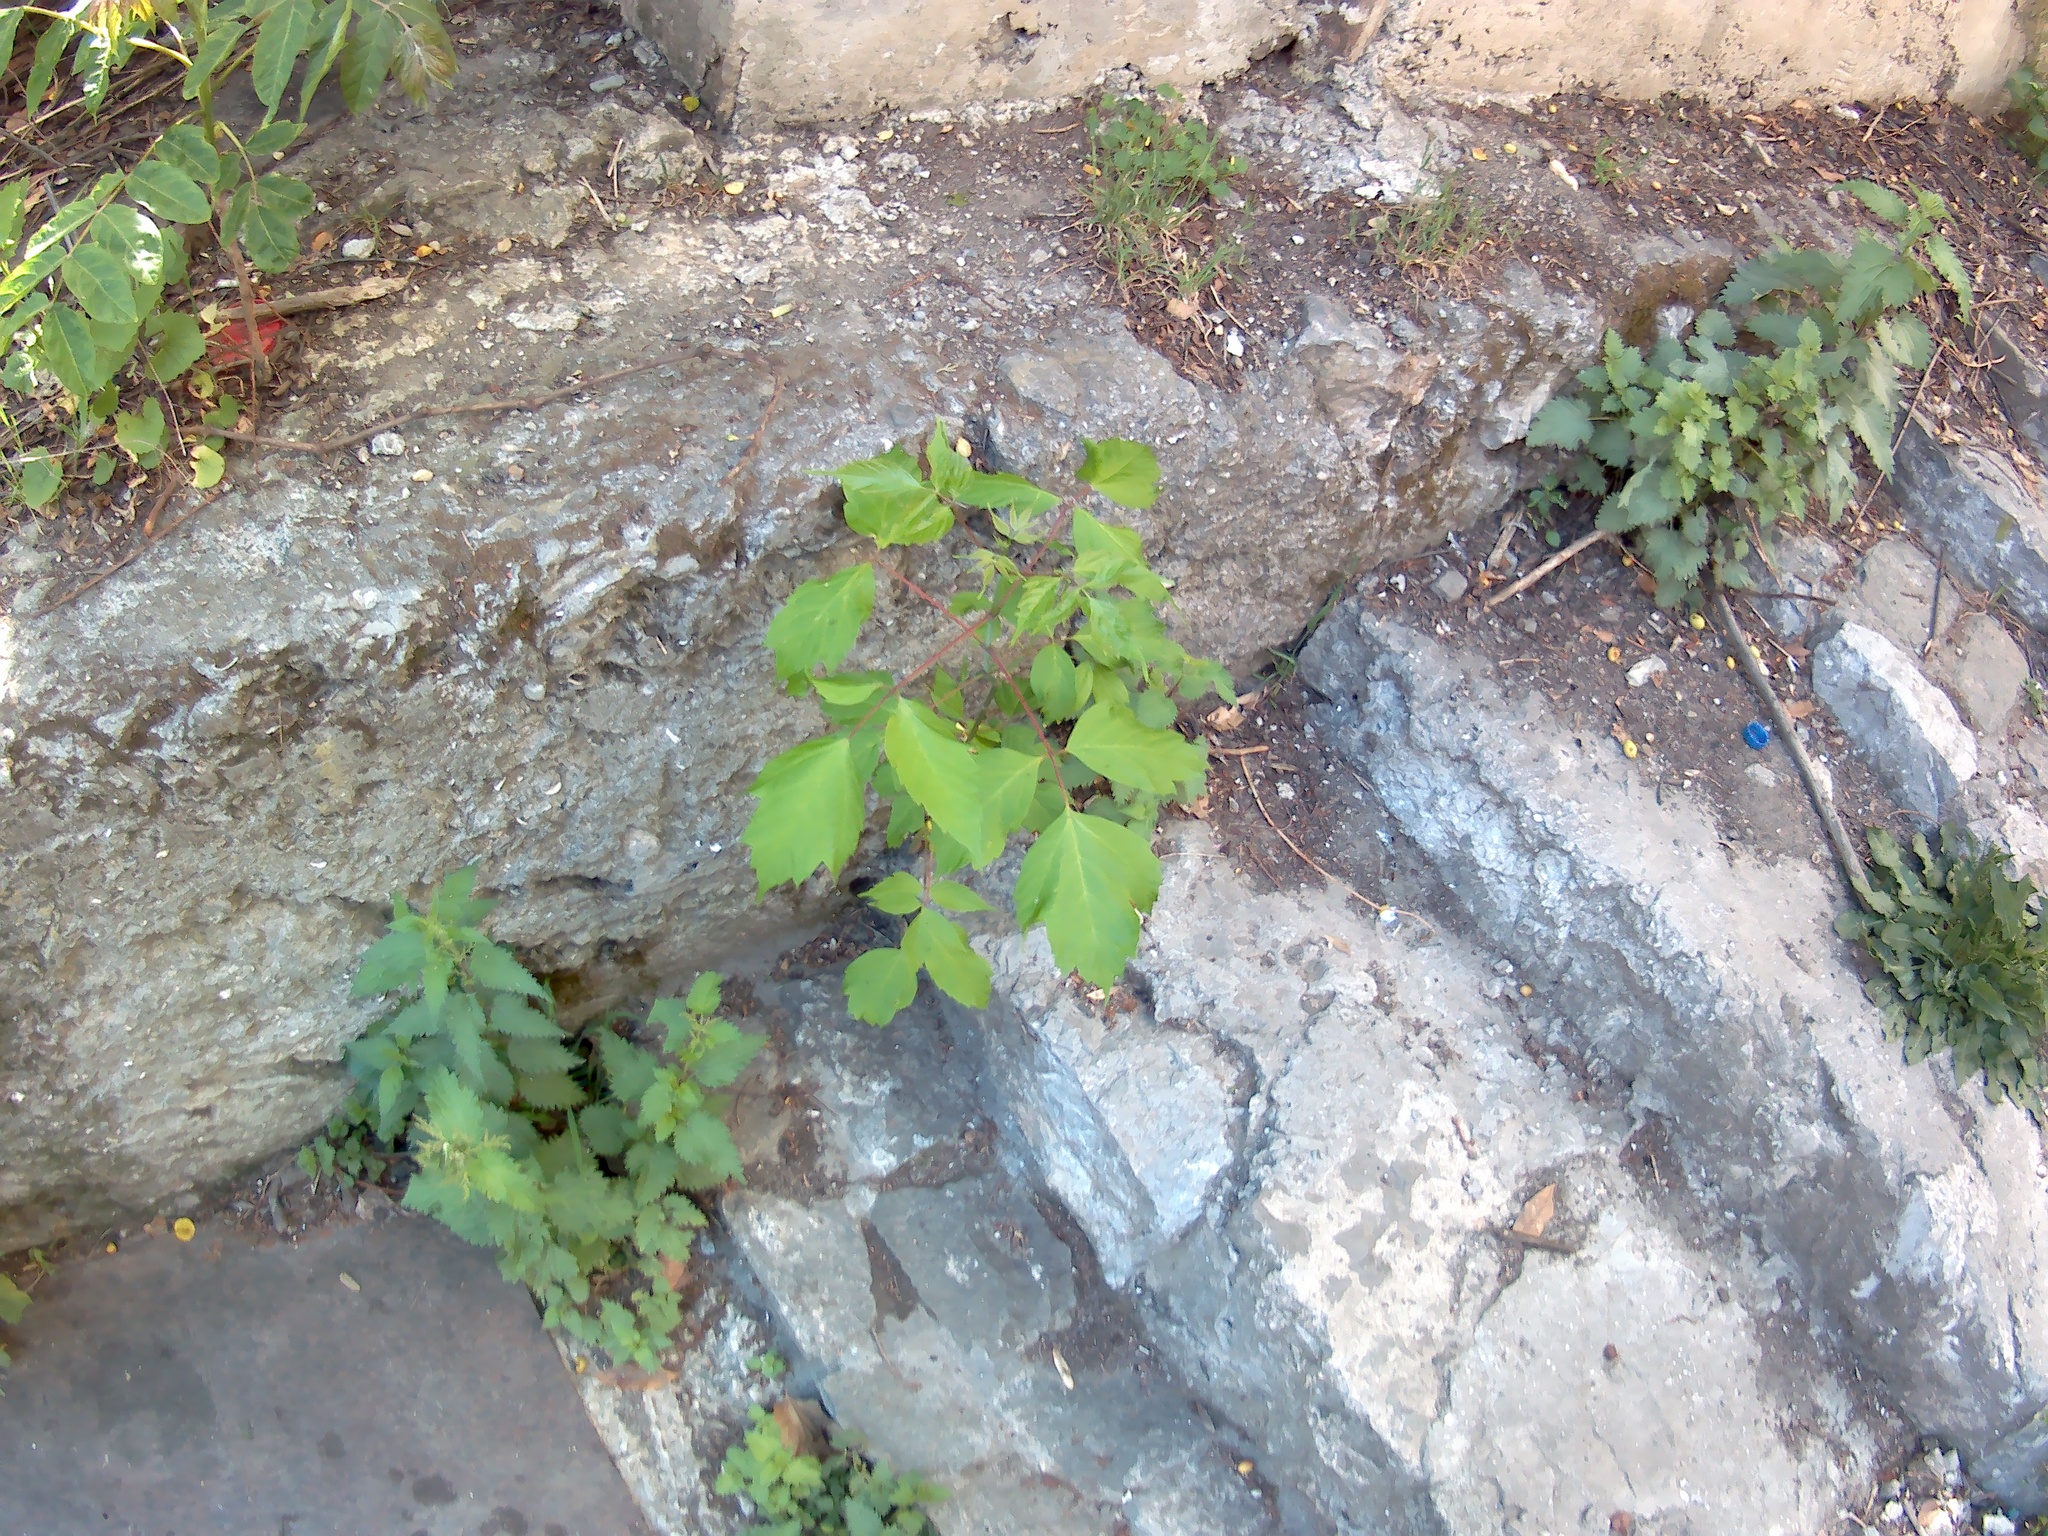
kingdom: Plantae
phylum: Tracheophyta
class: Magnoliopsida
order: Sapindales
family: Sapindaceae
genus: Acer
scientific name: Acer negundo
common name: Ashleaf maple
